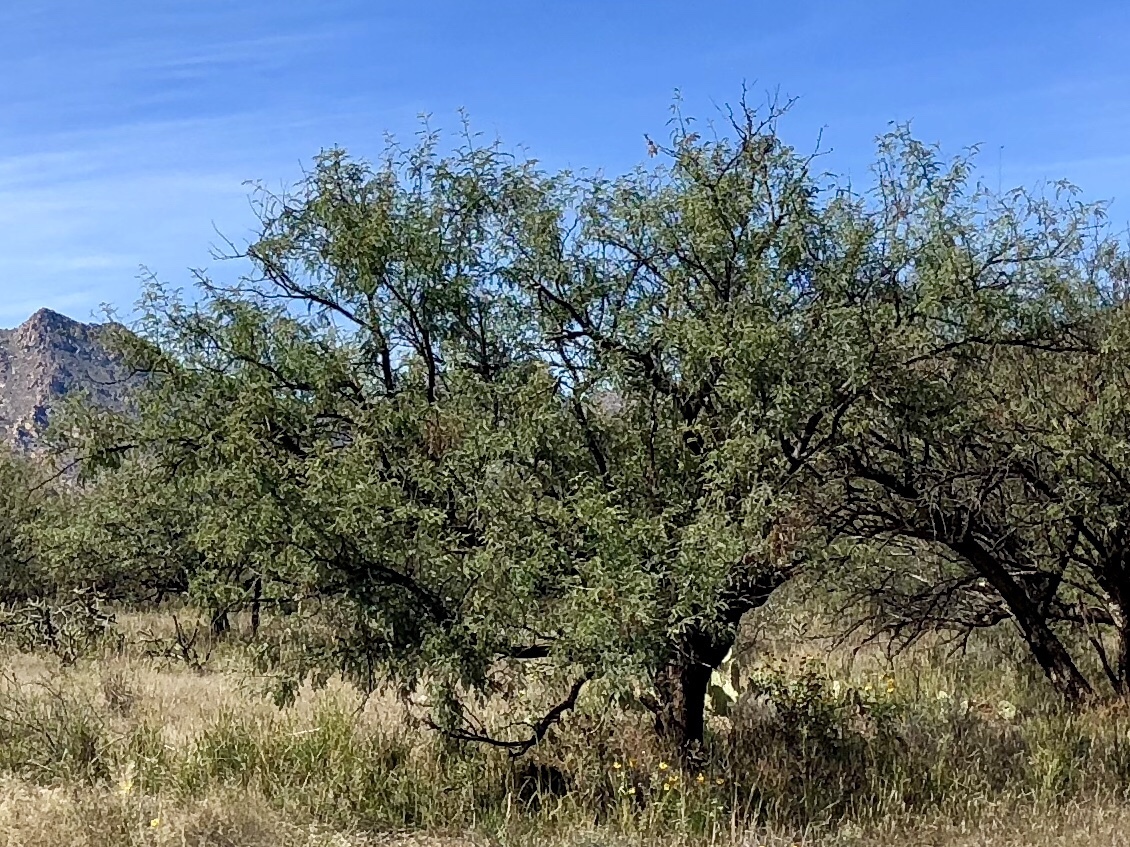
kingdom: Plantae
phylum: Tracheophyta
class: Magnoliopsida
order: Fabales
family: Fabaceae
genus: Prosopis
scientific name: Prosopis velutina
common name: Velvet mesquite
